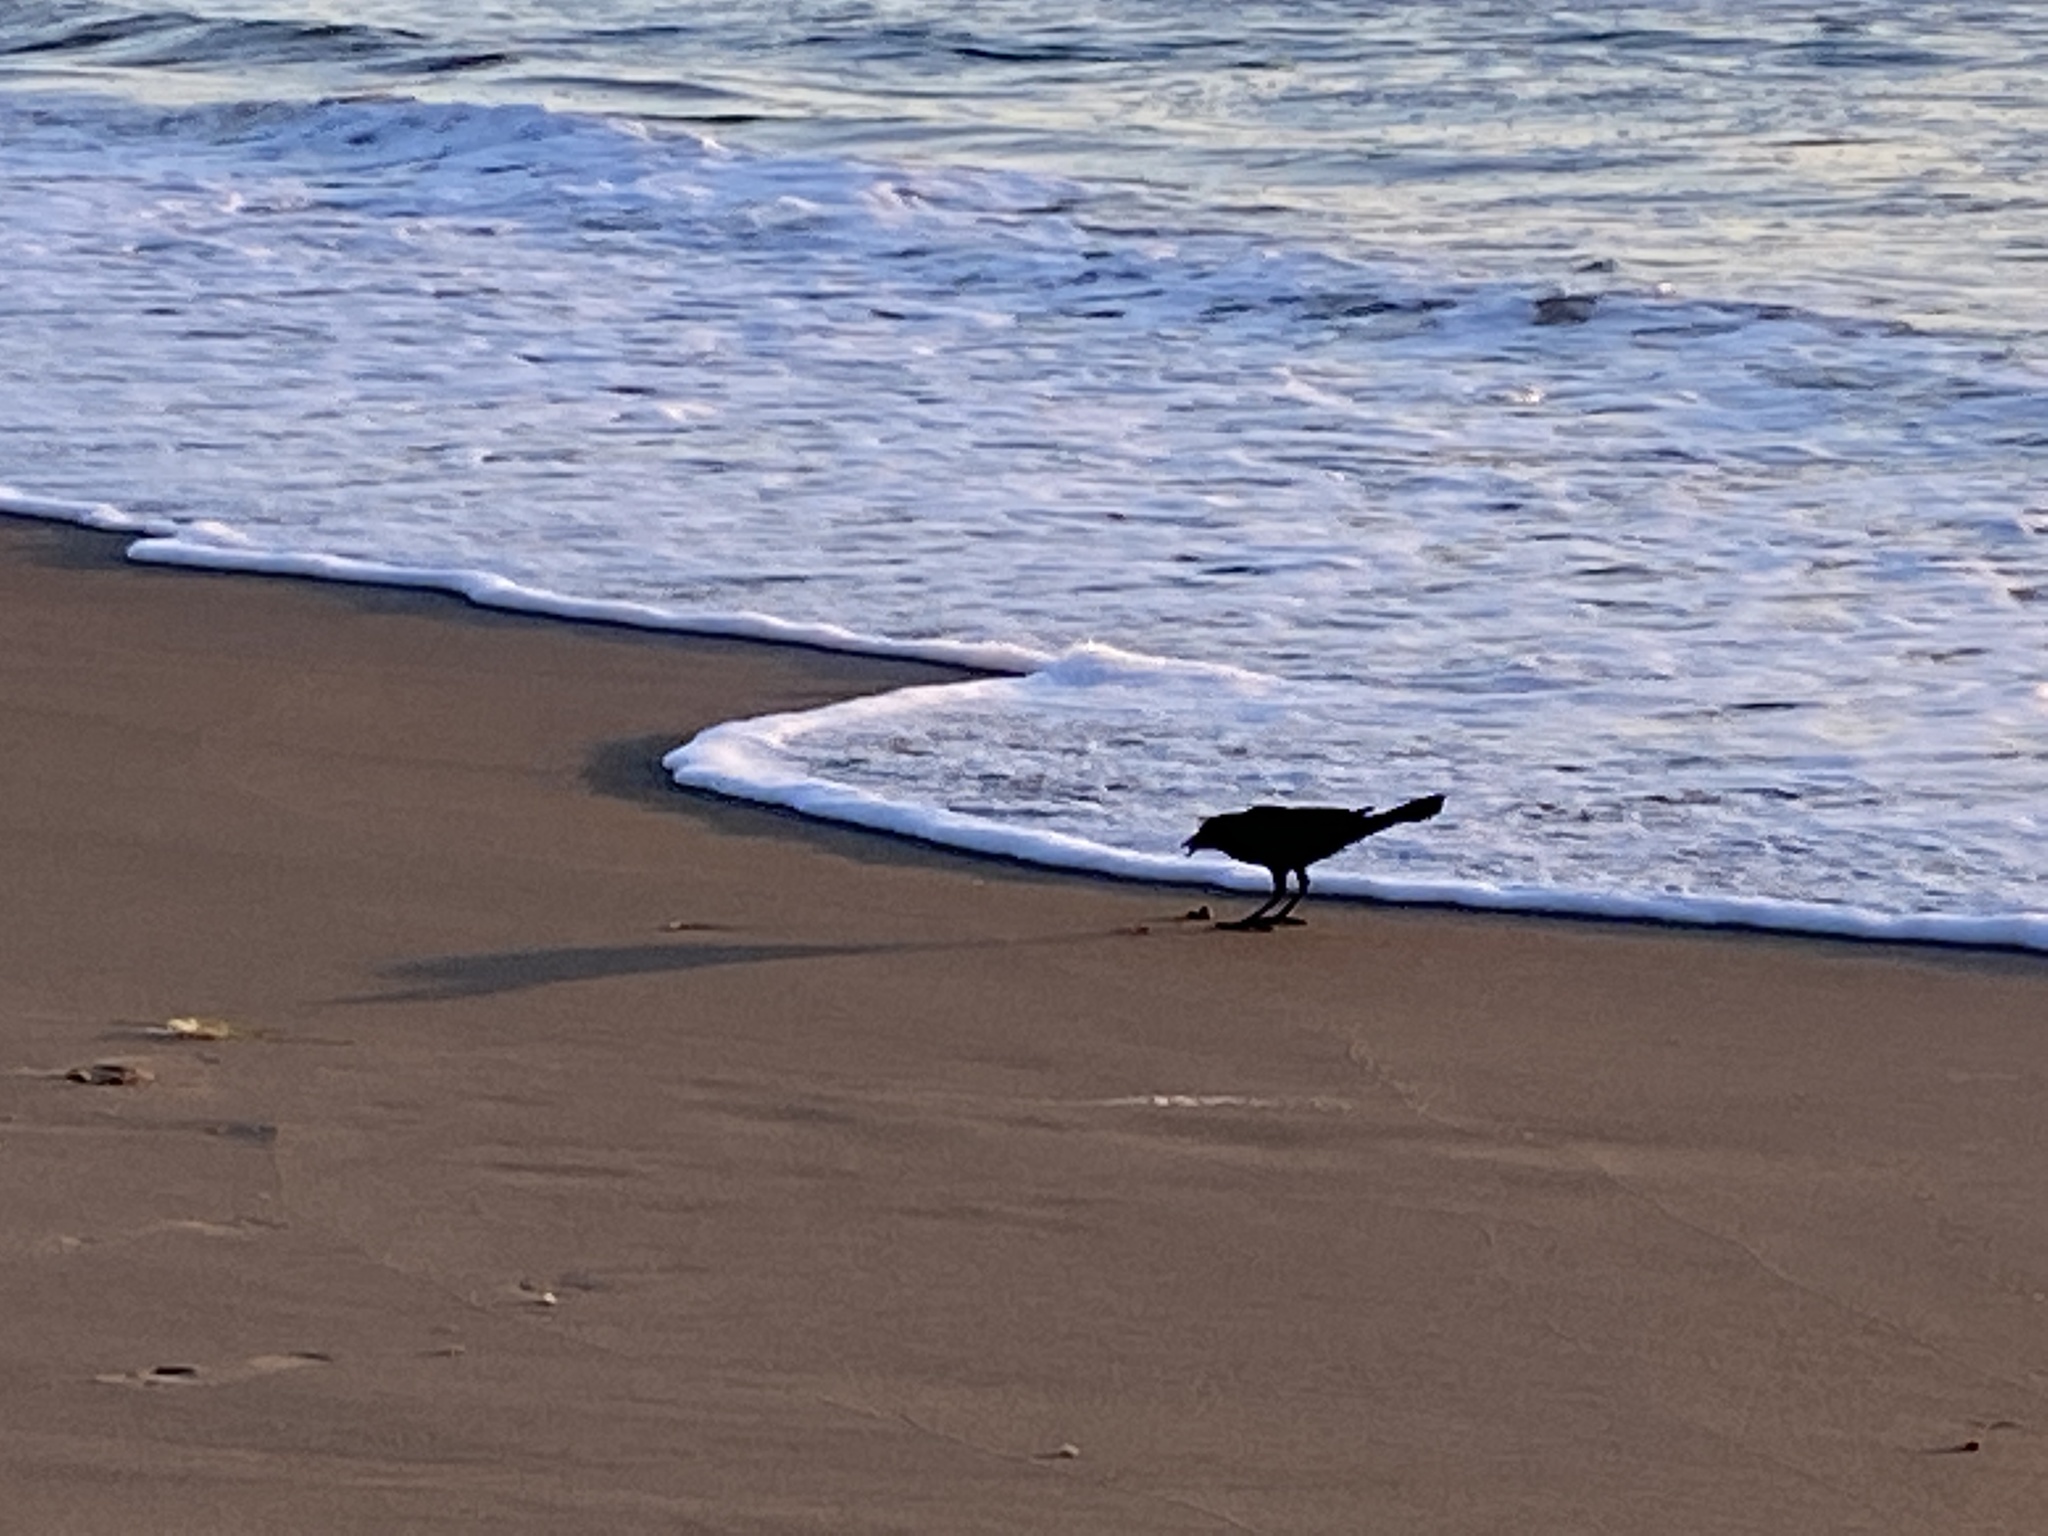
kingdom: Animalia
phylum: Chordata
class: Aves
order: Passeriformes
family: Icteridae
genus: Quiscalus
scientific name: Quiscalus major
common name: Boat-tailed grackle
